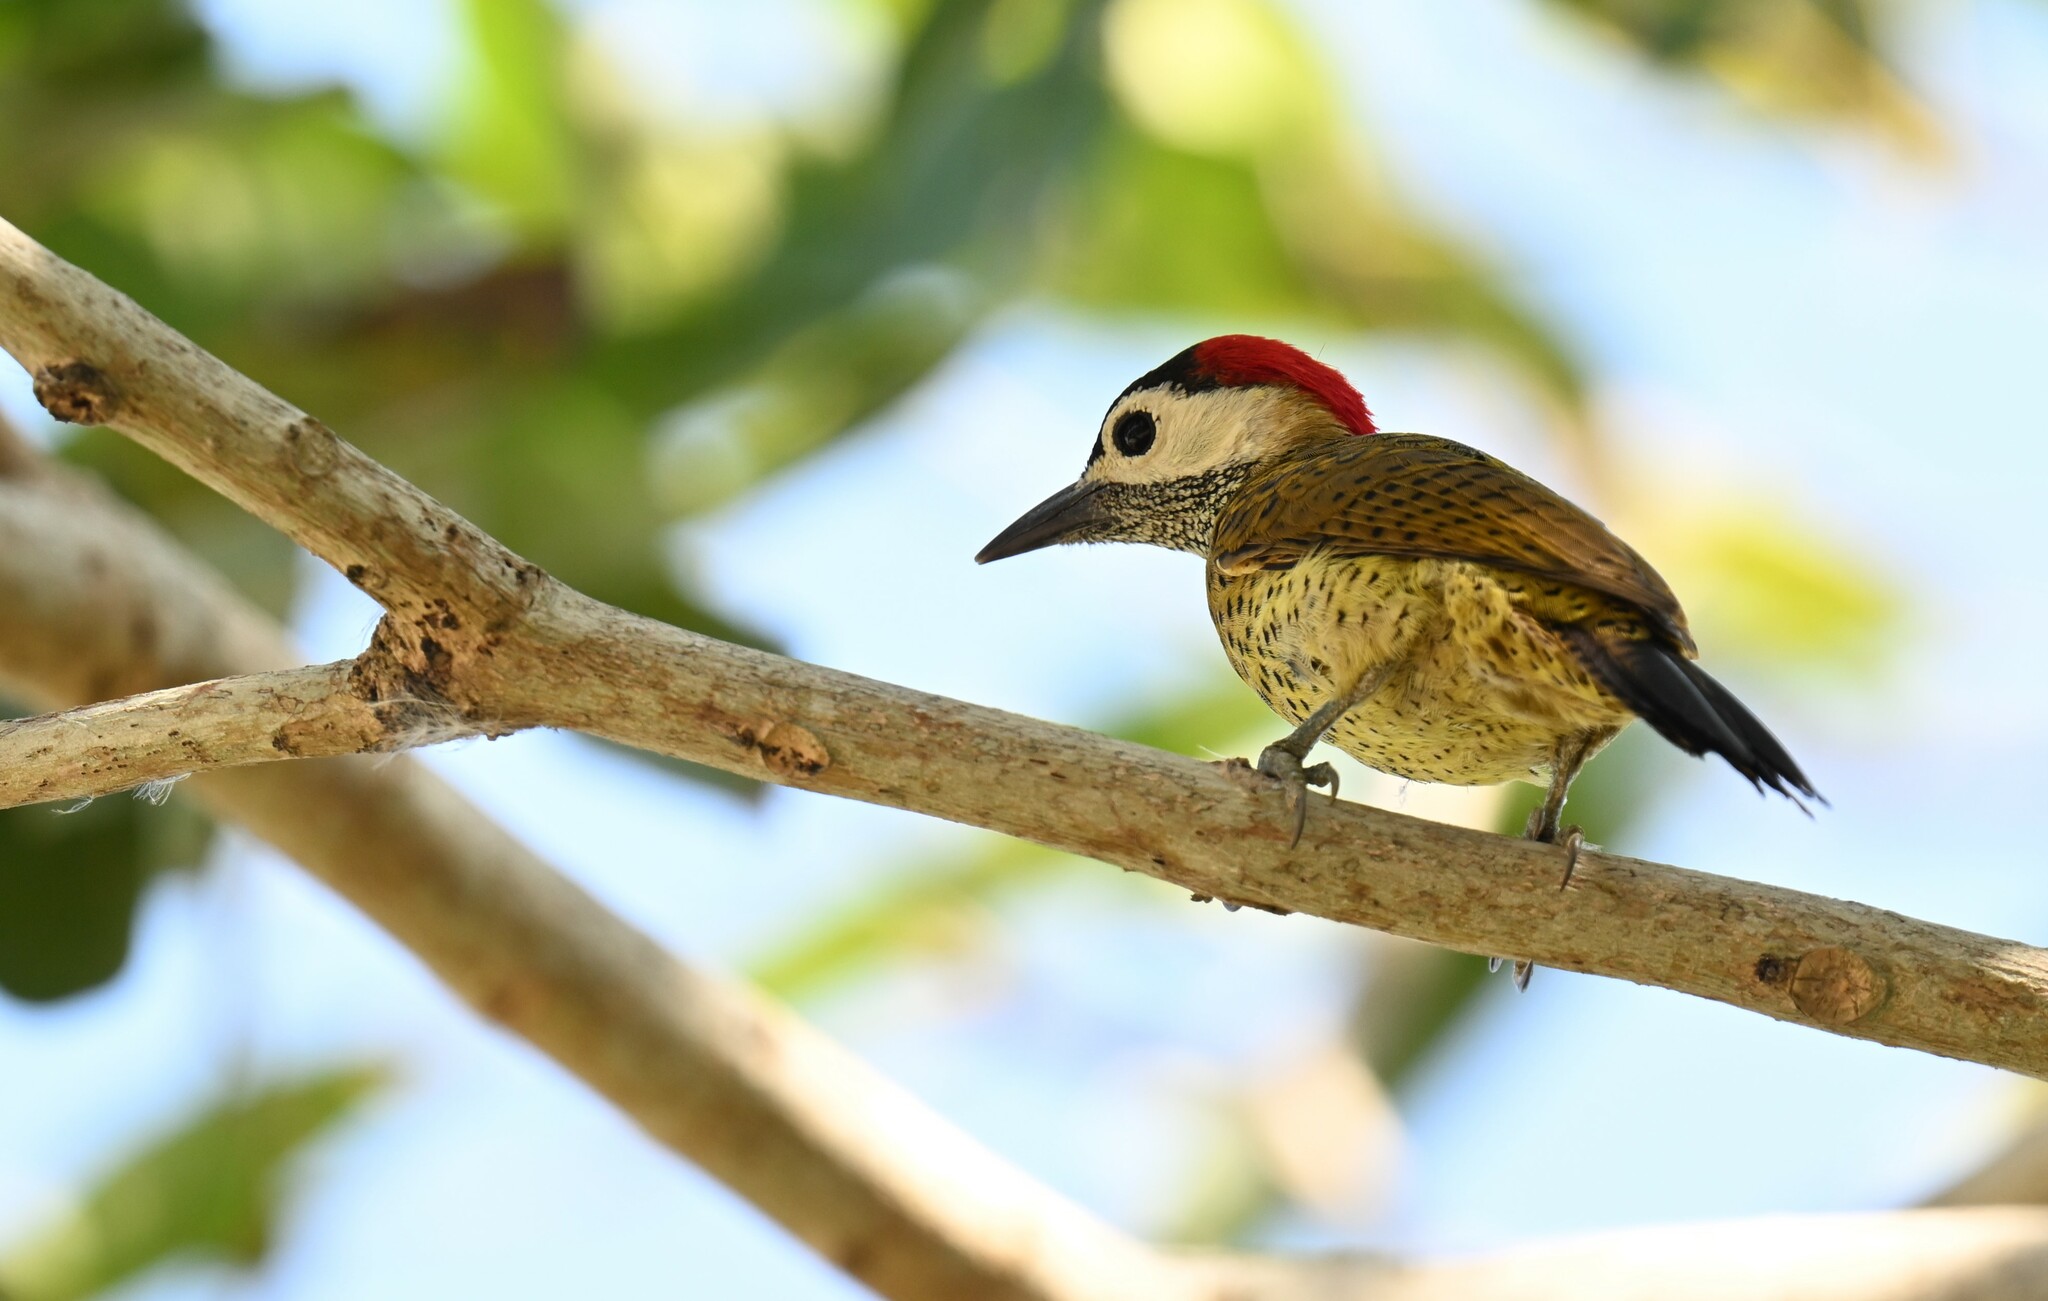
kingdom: Animalia
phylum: Chordata
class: Aves
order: Piciformes
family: Picidae
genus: Colaptes
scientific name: Colaptes punctigula
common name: Spot-breasted woodpecker
